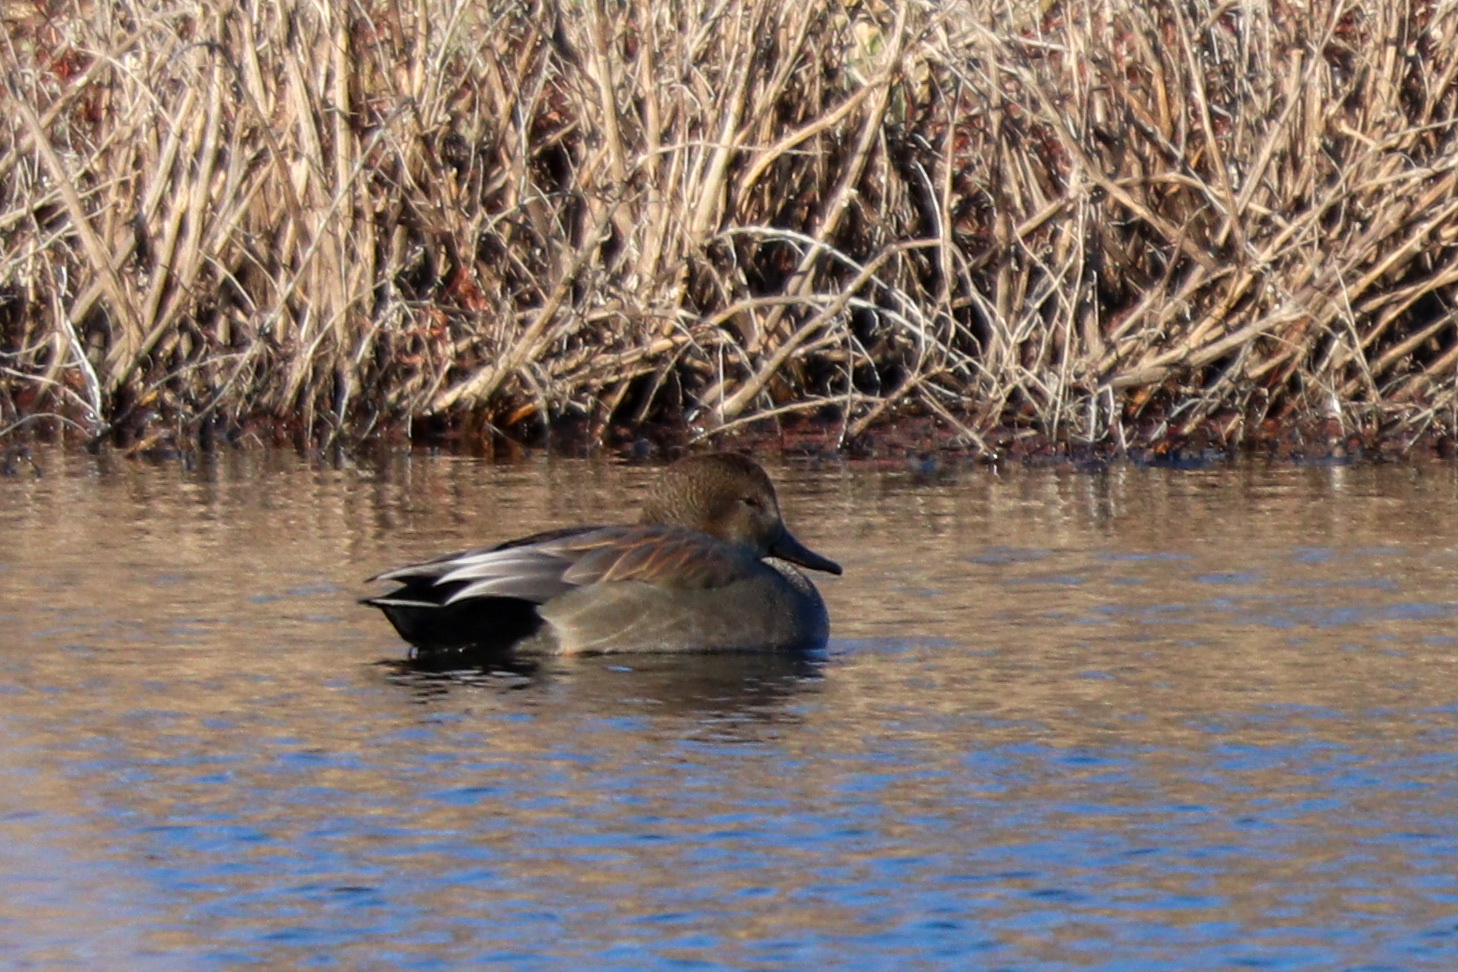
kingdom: Animalia
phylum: Chordata
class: Aves
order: Anseriformes
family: Anatidae
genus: Mareca
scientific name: Mareca strepera
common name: Gadwall
